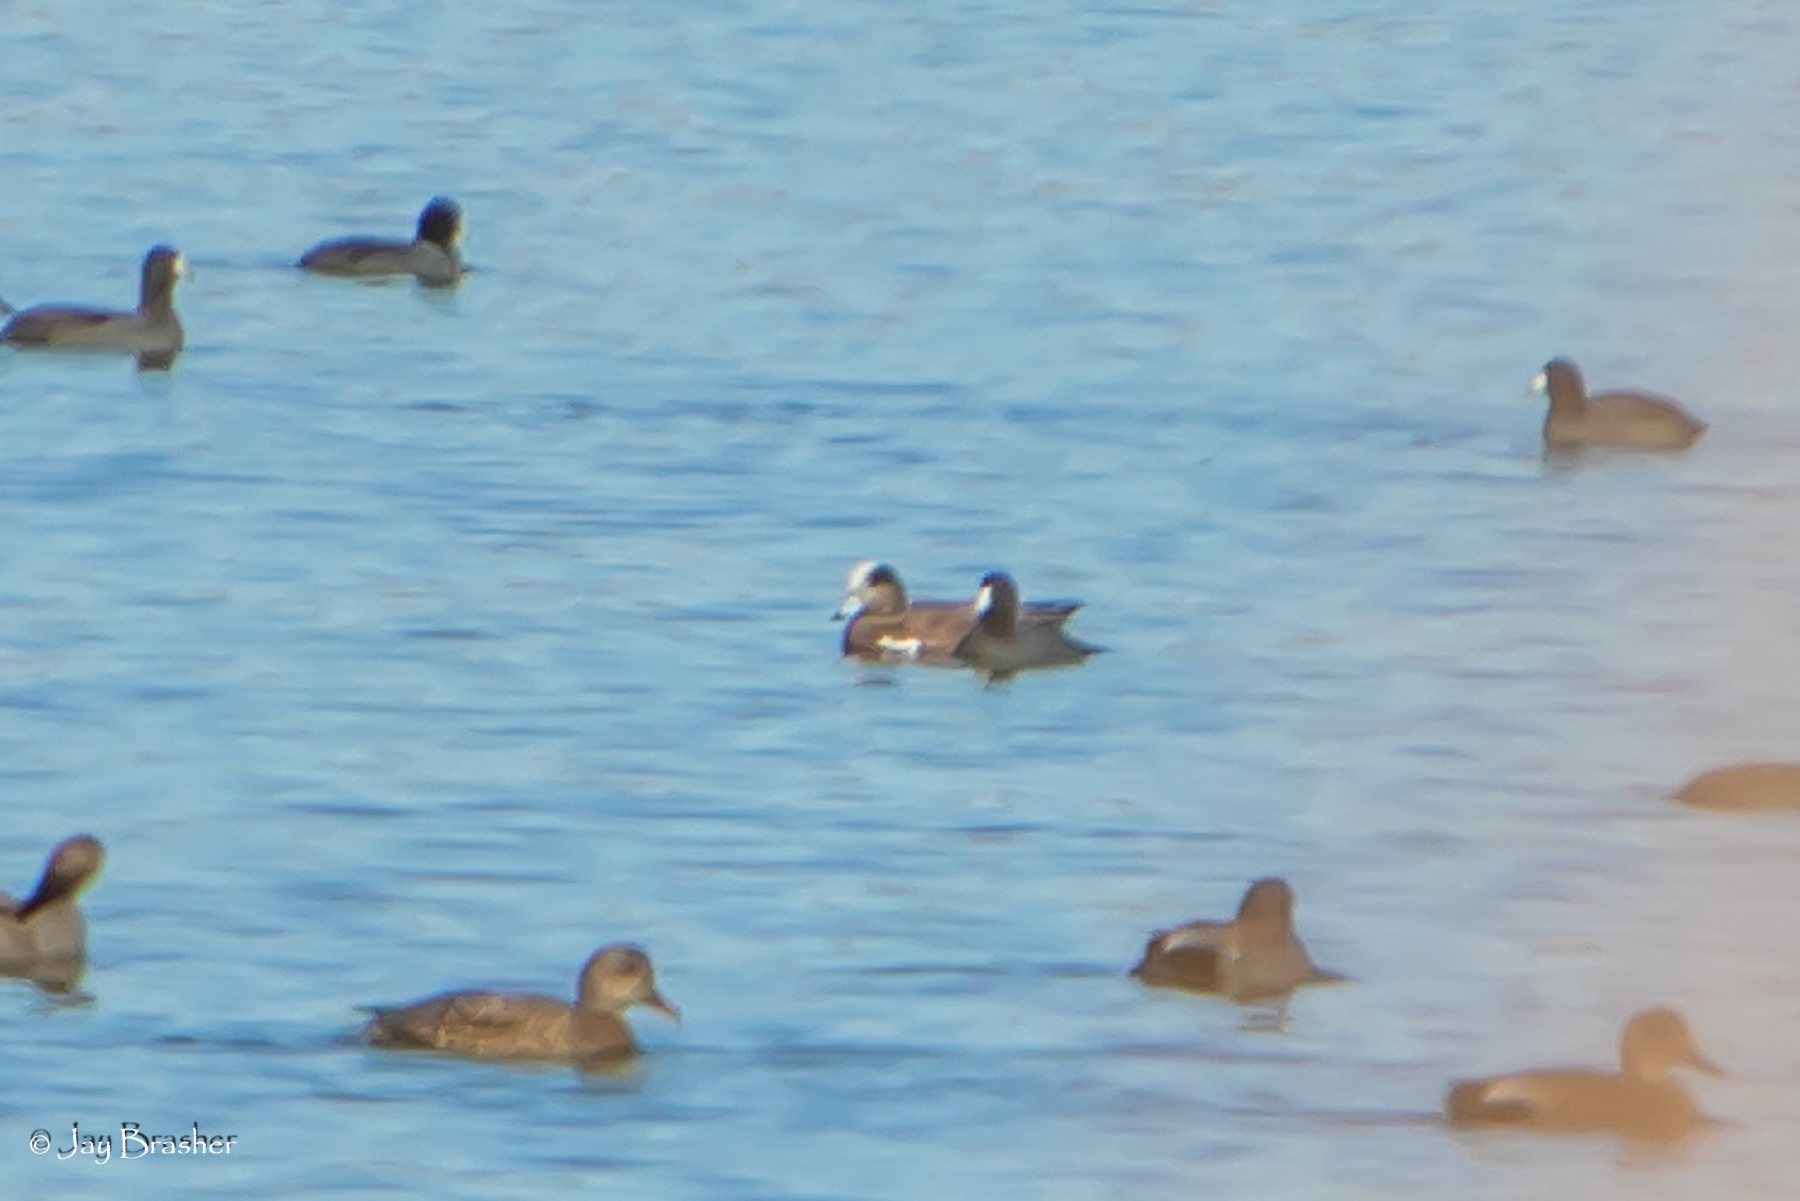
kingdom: Animalia
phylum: Chordata
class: Aves
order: Anseriformes
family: Anatidae
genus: Mareca
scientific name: Mareca americana
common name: American wigeon
